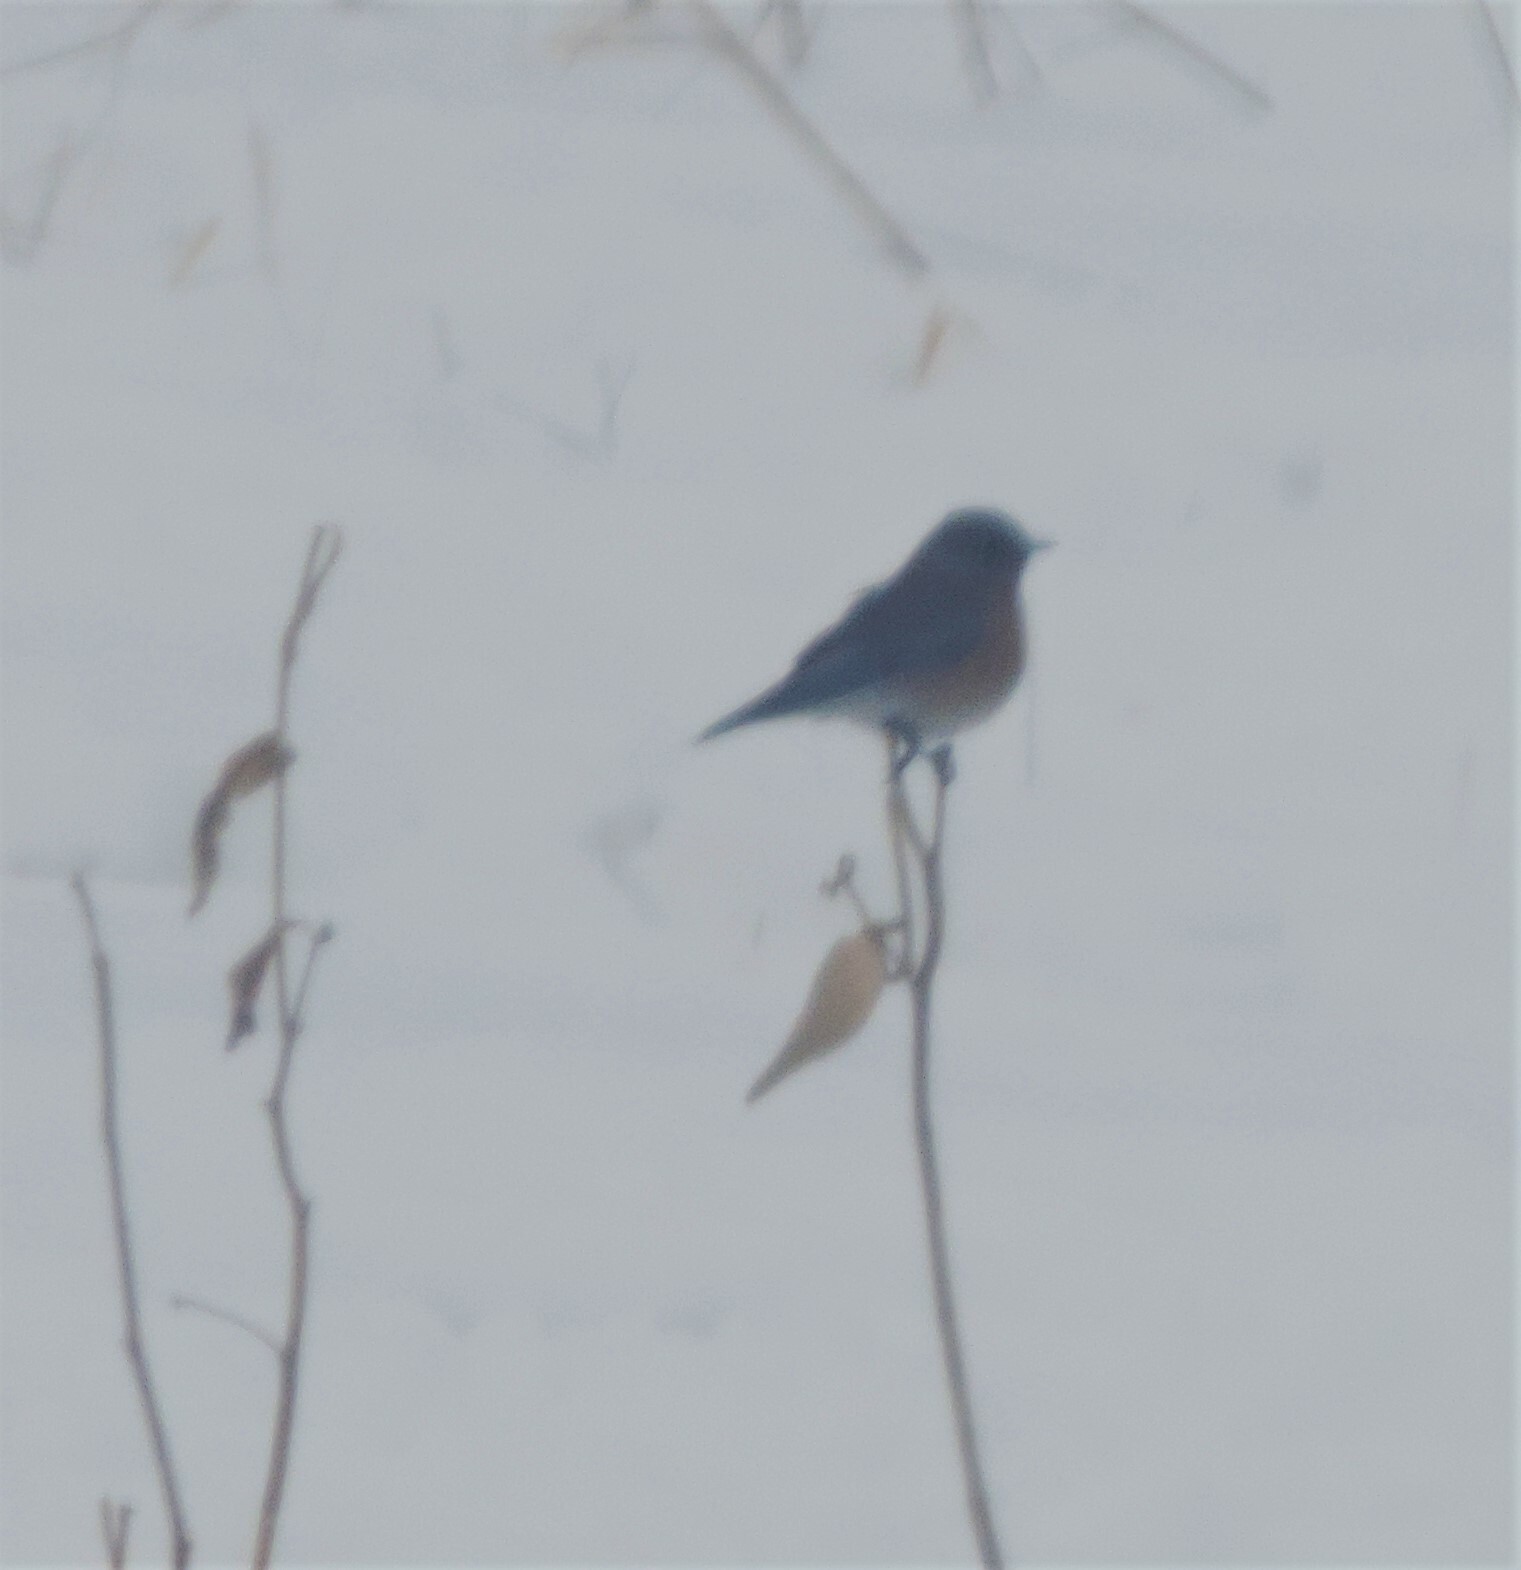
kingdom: Animalia
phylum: Chordata
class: Aves
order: Passeriformes
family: Turdidae
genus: Sialia
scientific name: Sialia mexicana
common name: Western bluebird
